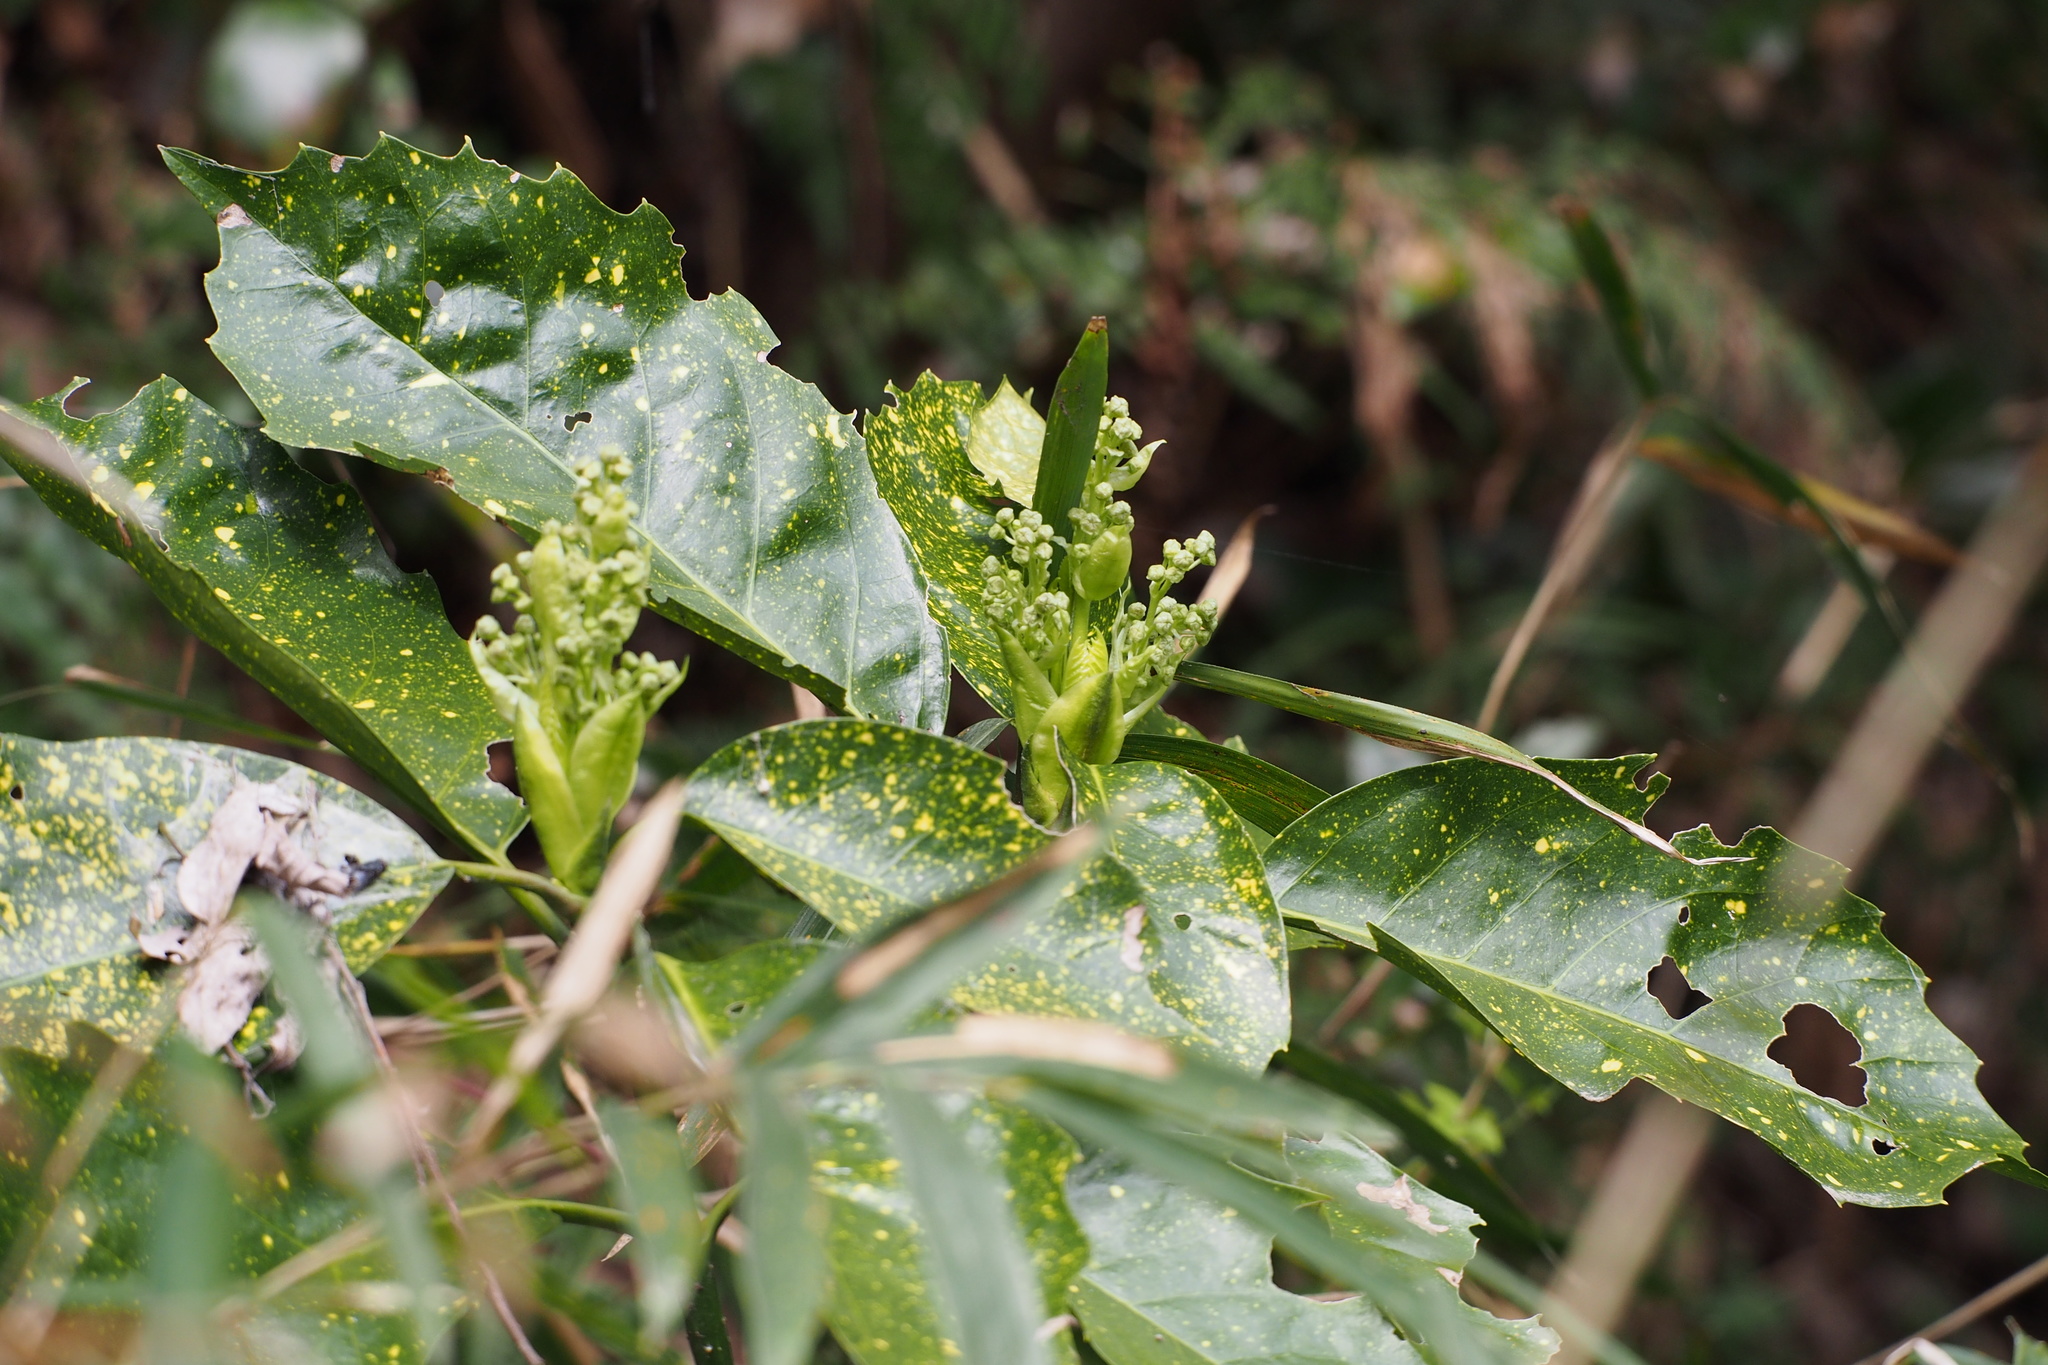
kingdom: Plantae
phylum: Tracheophyta
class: Magnoliopsida
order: Garryales
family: Garryaceae
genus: Aucuba
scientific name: Aucuba japonica
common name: Spotted-laurel
